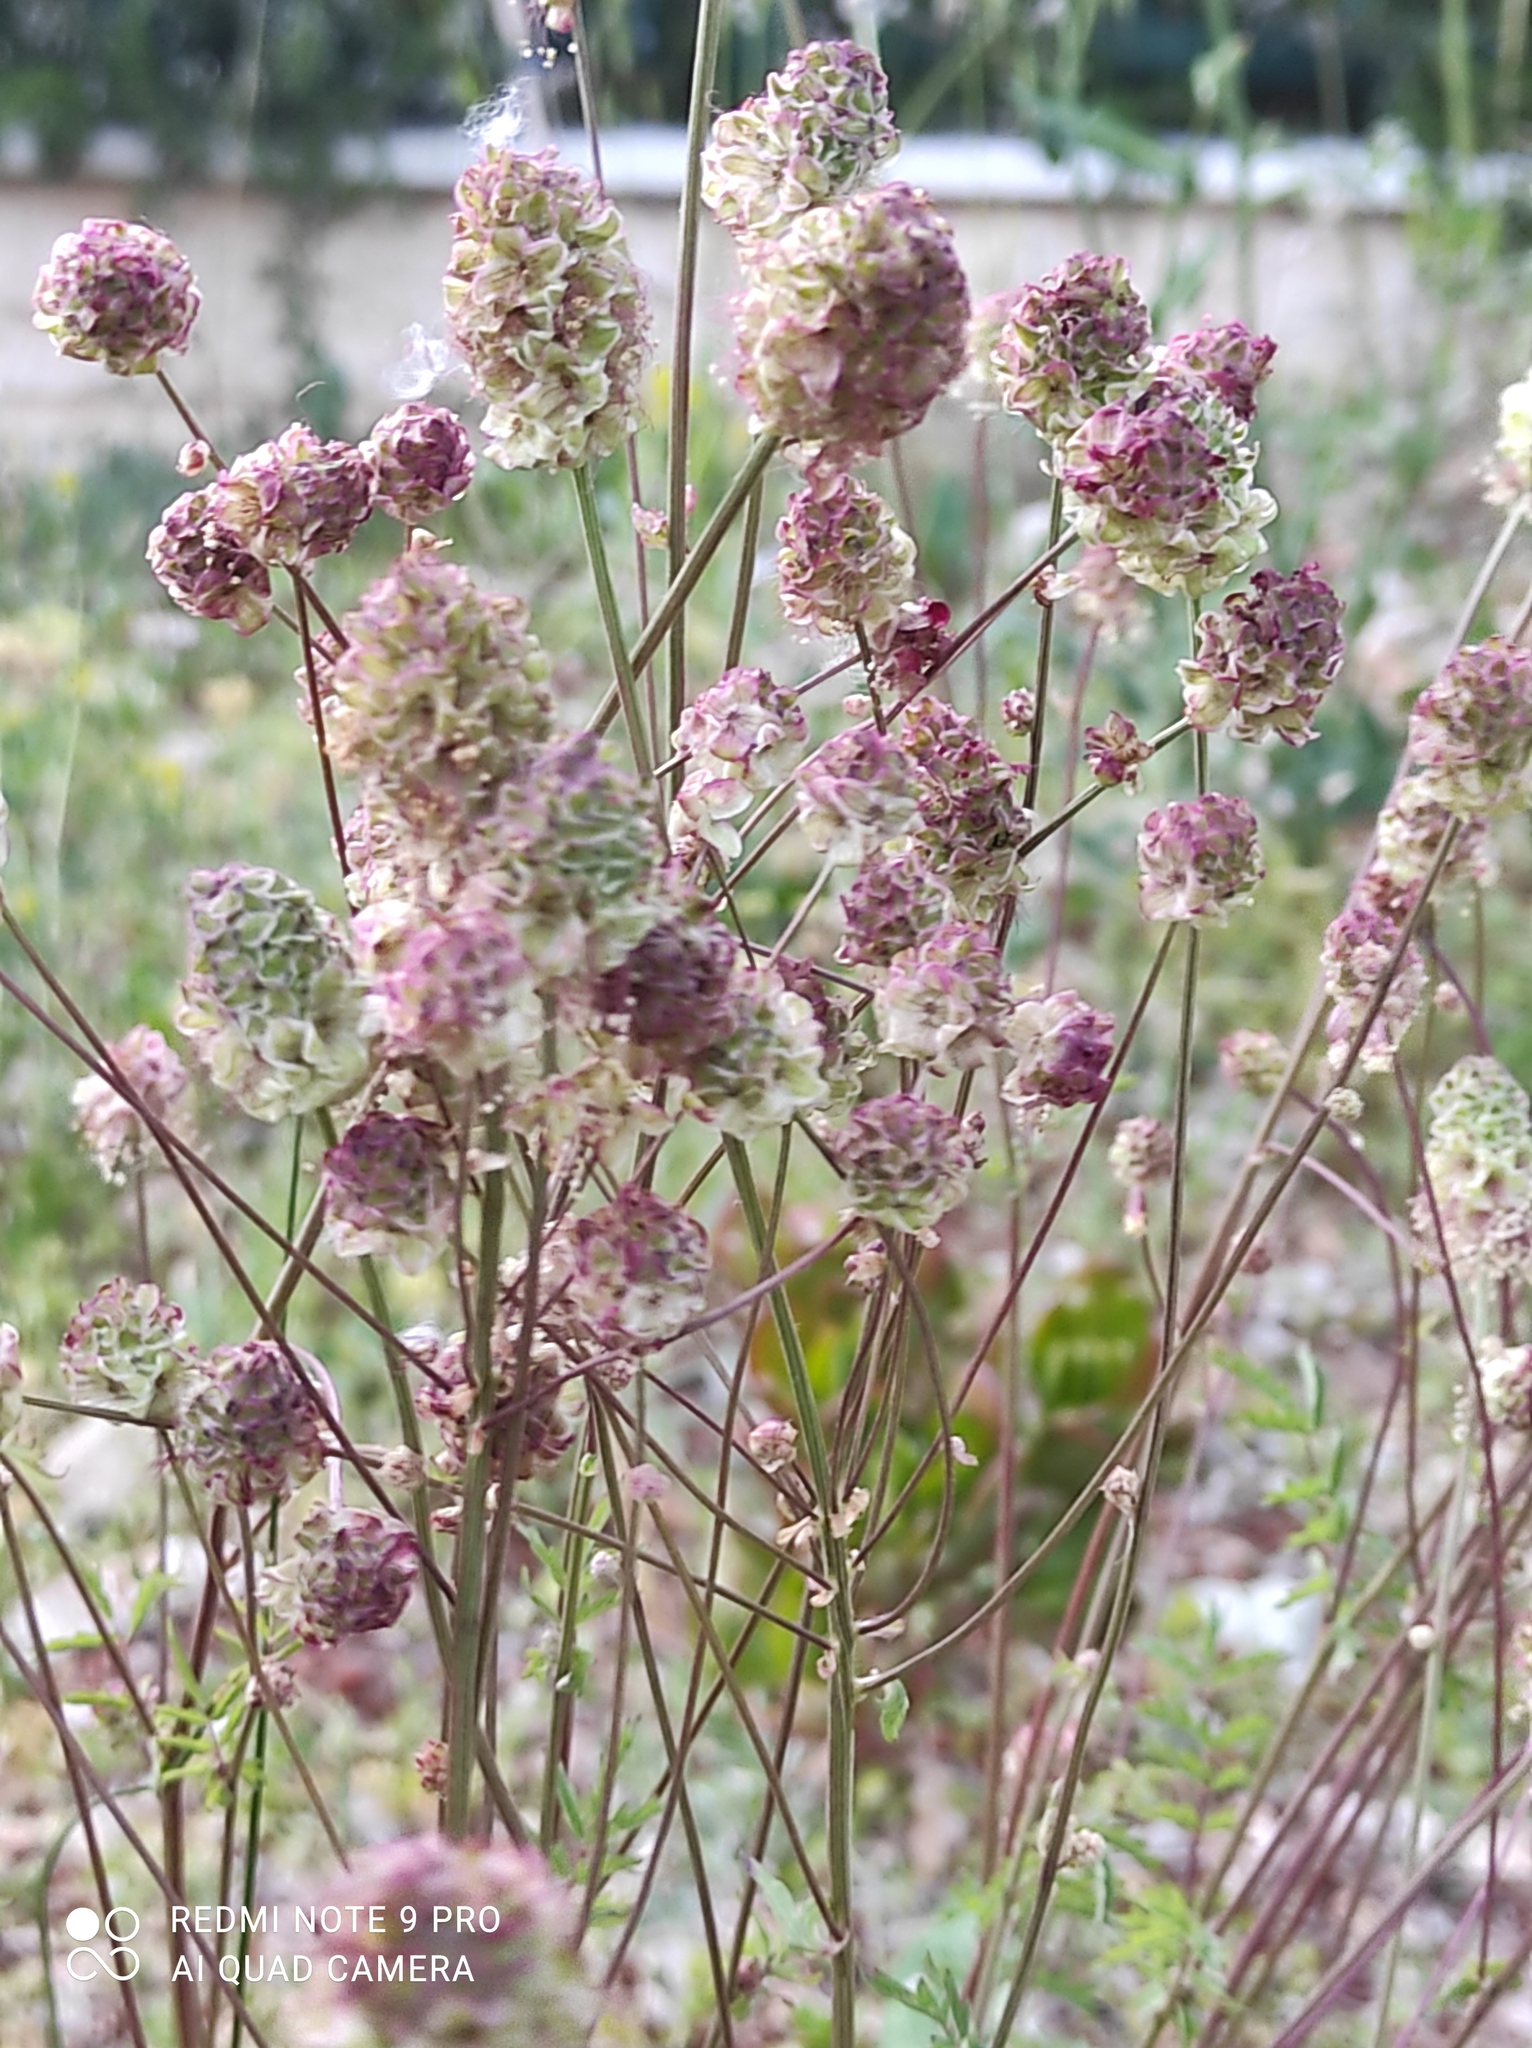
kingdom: Plantae
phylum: Tracheophyta
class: Magnoliopsida
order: Rosales
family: Rosaceae
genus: Poterium
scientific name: Poterium sanguisorba
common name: Salad burnet
